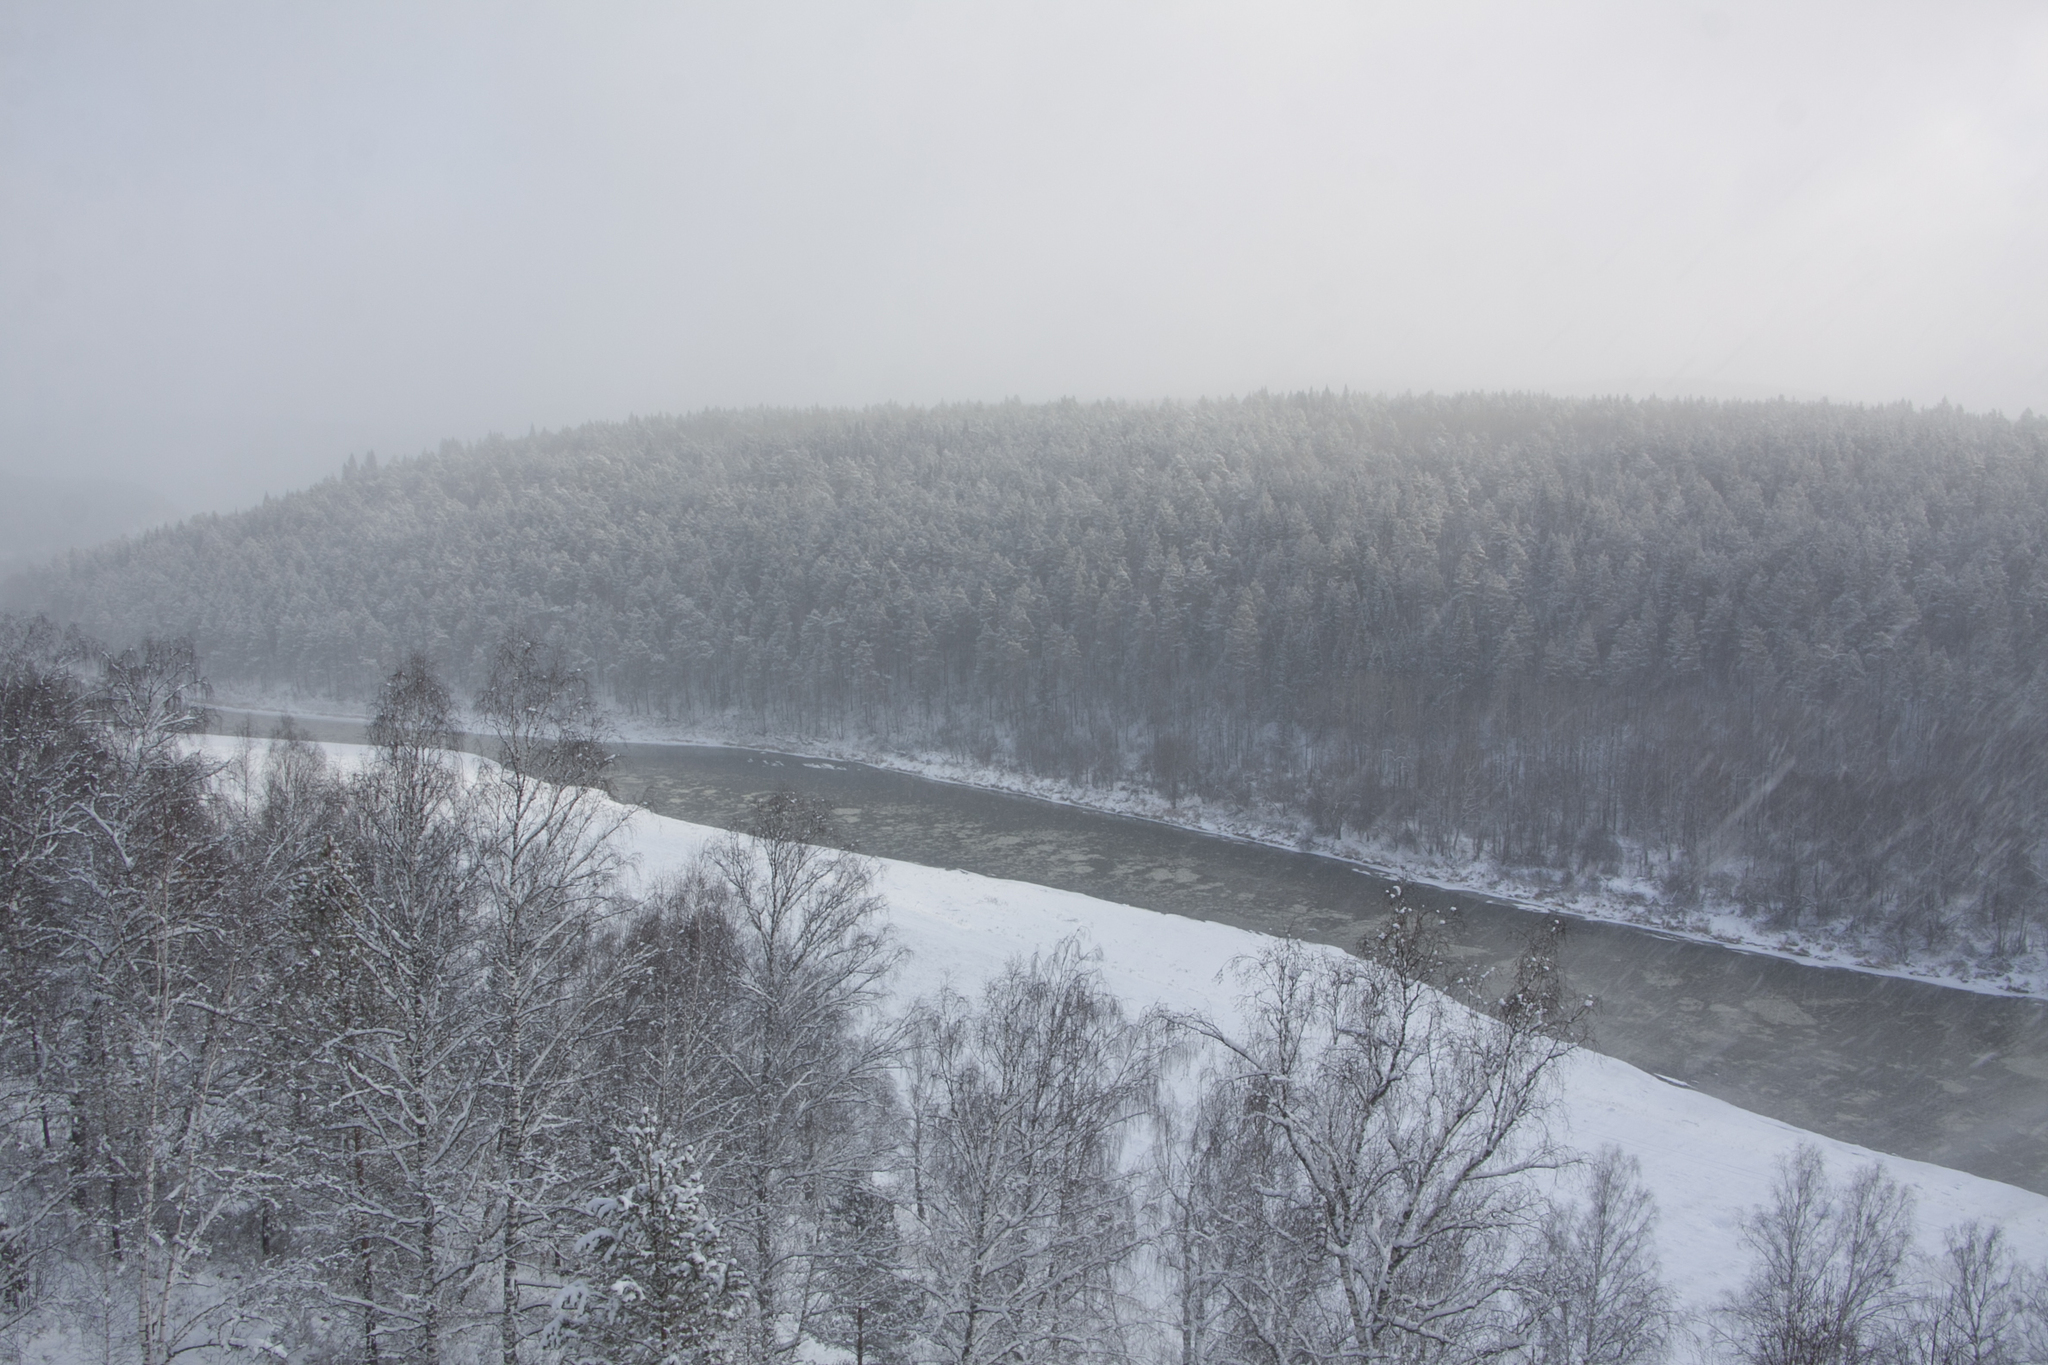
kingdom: Plantae
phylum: Tracheophyta
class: Pinopsida
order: Pinales
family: Pinaceae
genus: Pinus
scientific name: Pinus sylvestris
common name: Scots pine
